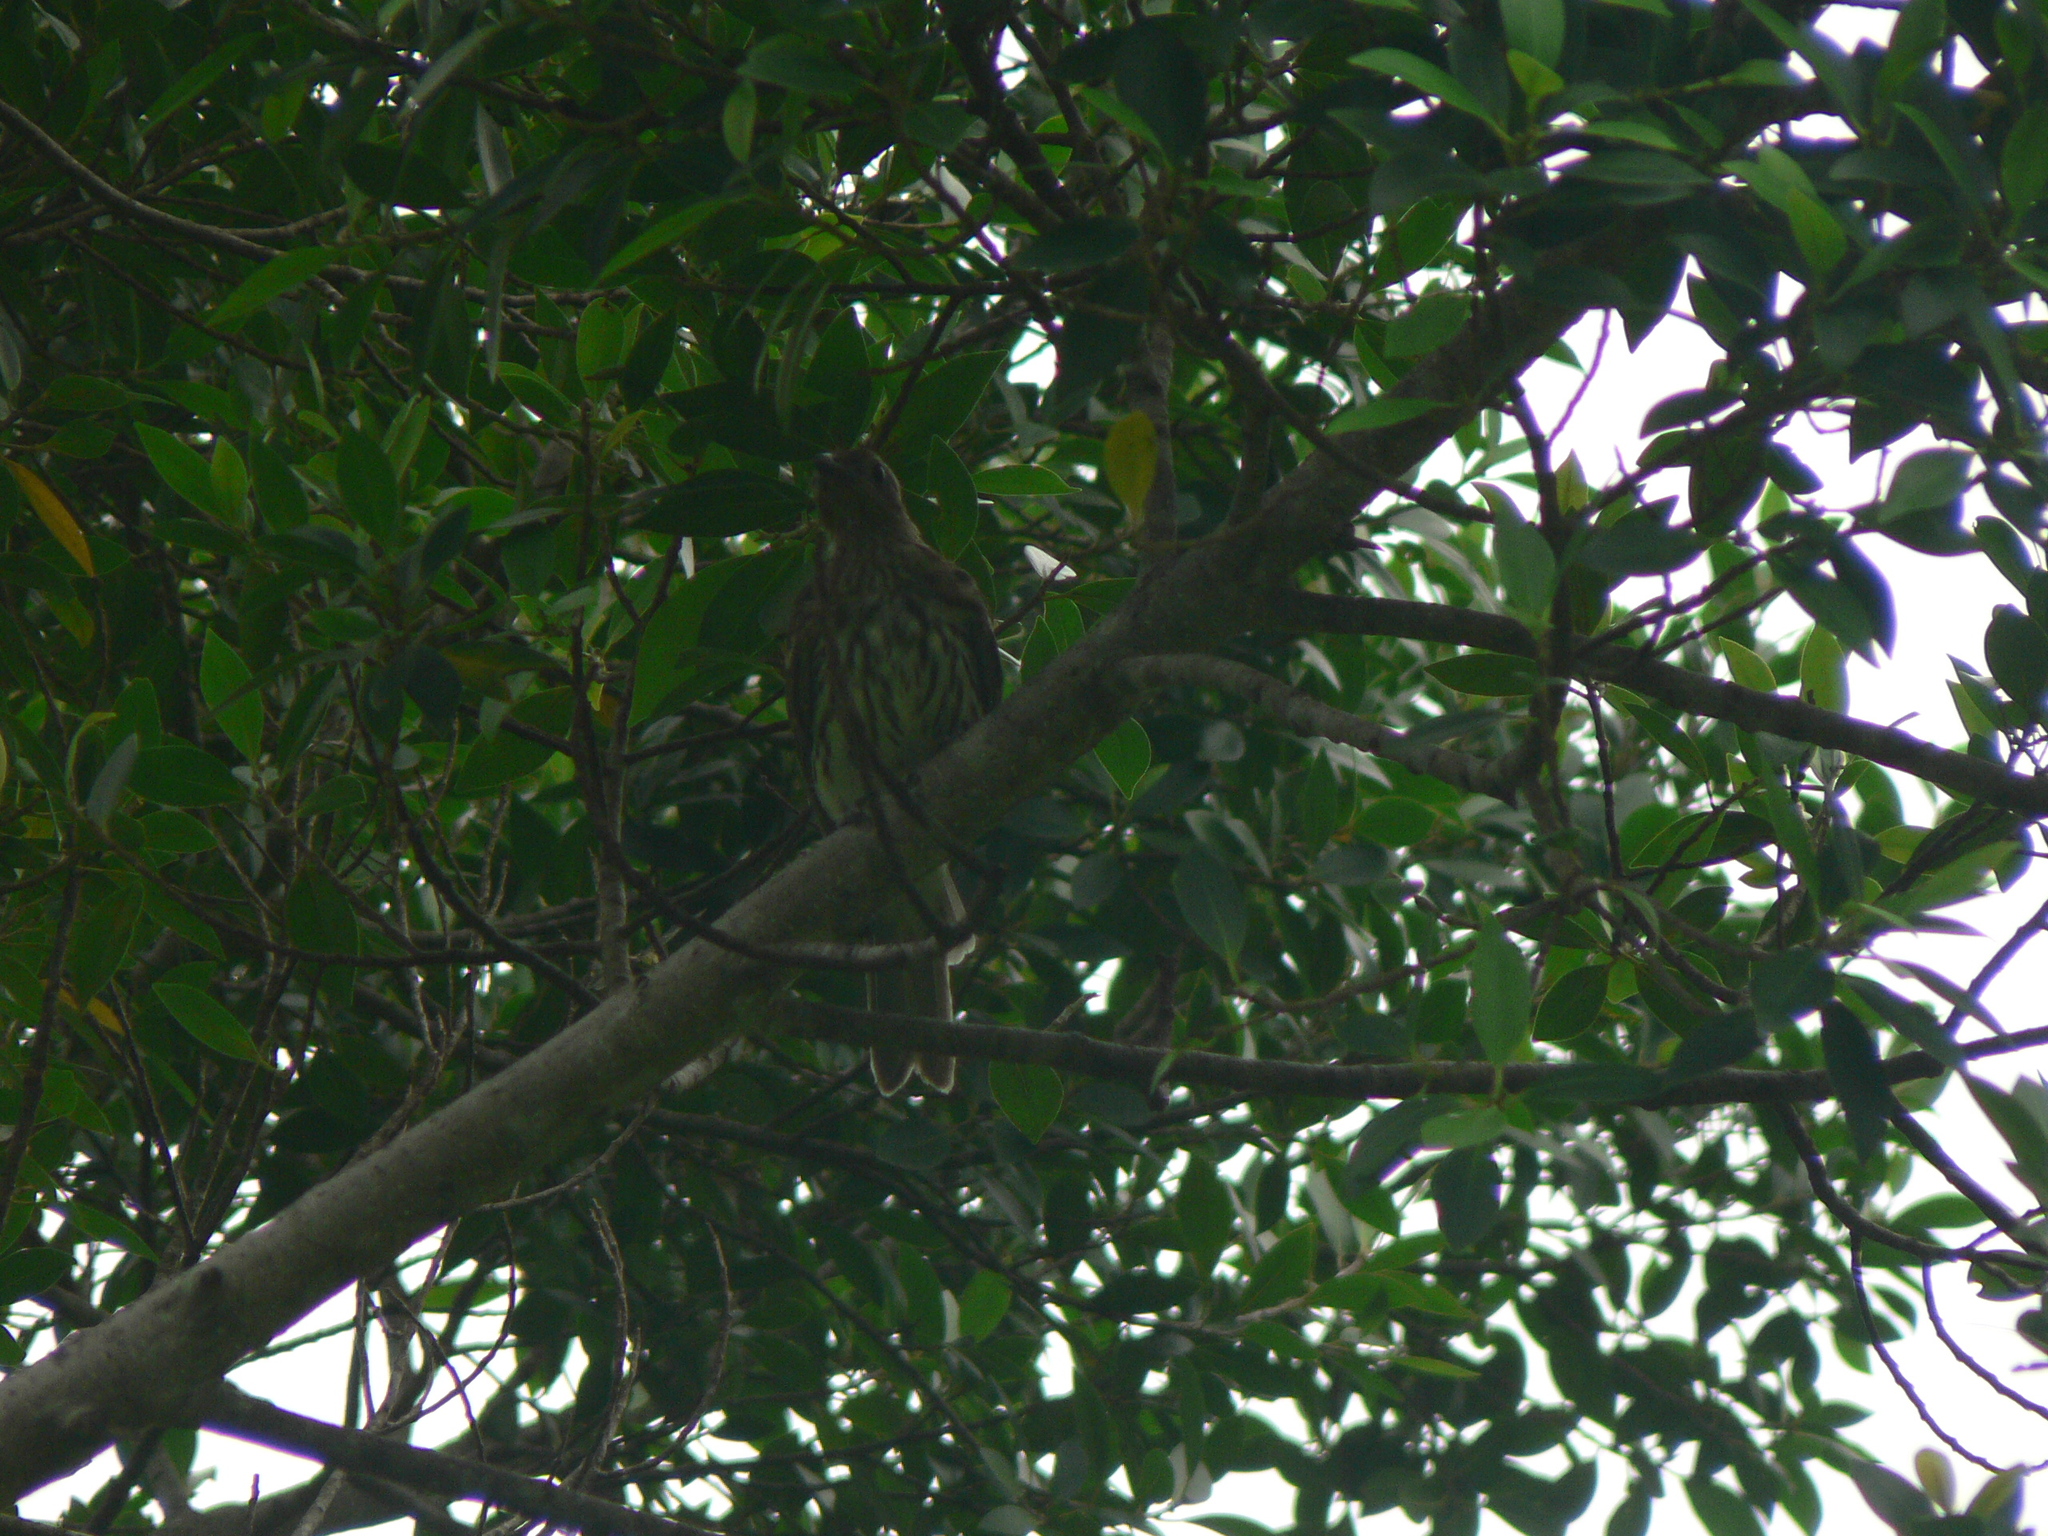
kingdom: Animalia
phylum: Chordata
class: Aves
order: Passeriformes
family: Oriolidae
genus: Sphecotheres
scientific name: Sphecotheres vieilloti
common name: Australasian figbird
